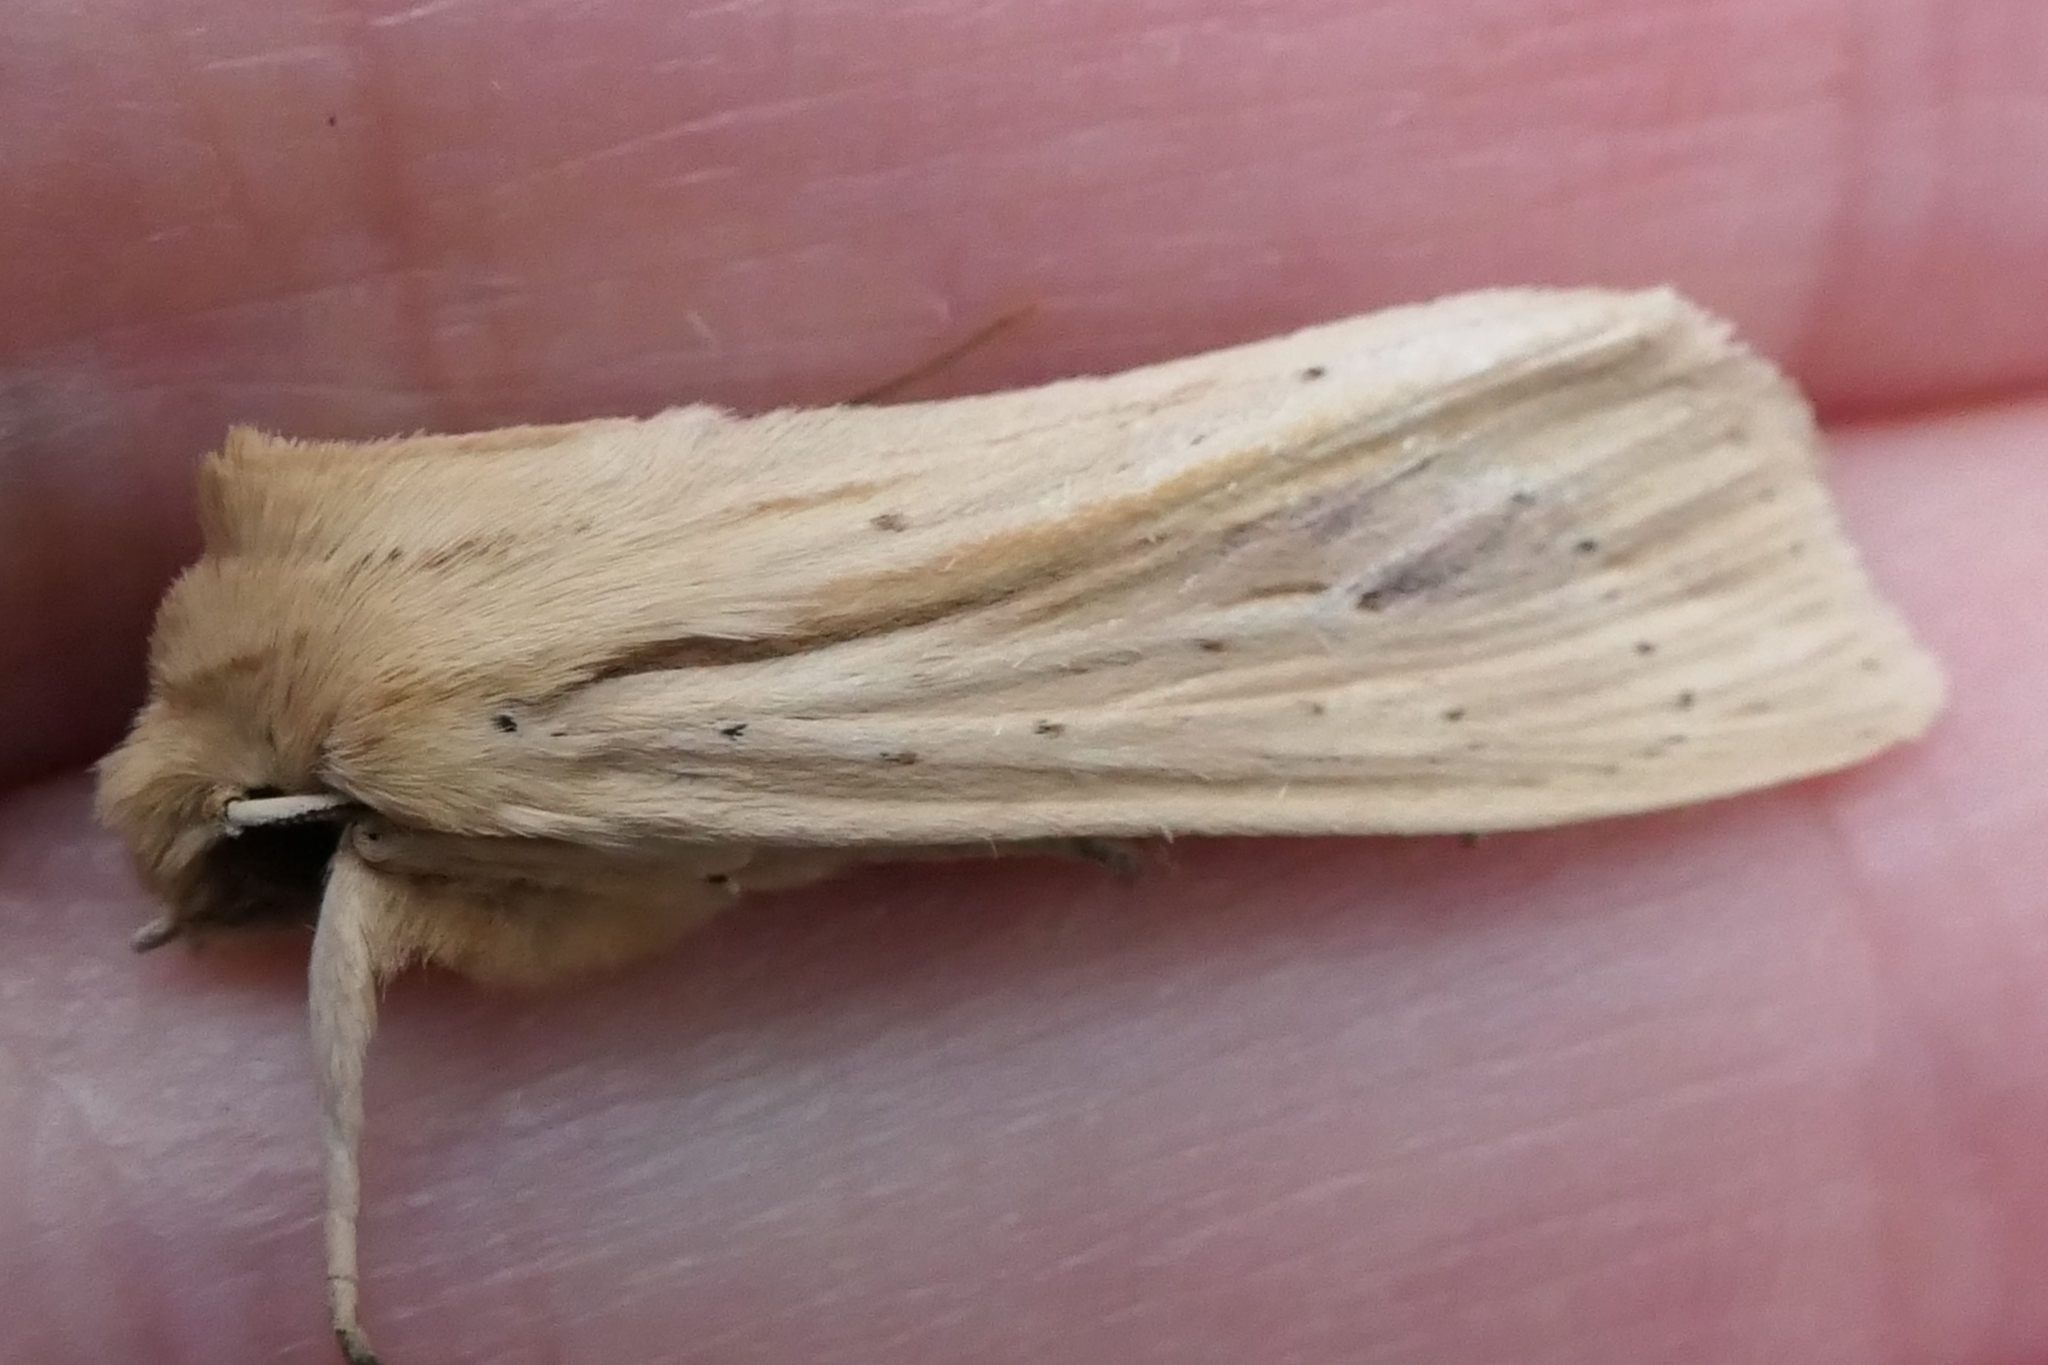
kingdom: Animalia
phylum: Arthropoda
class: Insecta
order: Lepidoptera
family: Noctuidae
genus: Ichneutica
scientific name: Ichneutica semivittata
